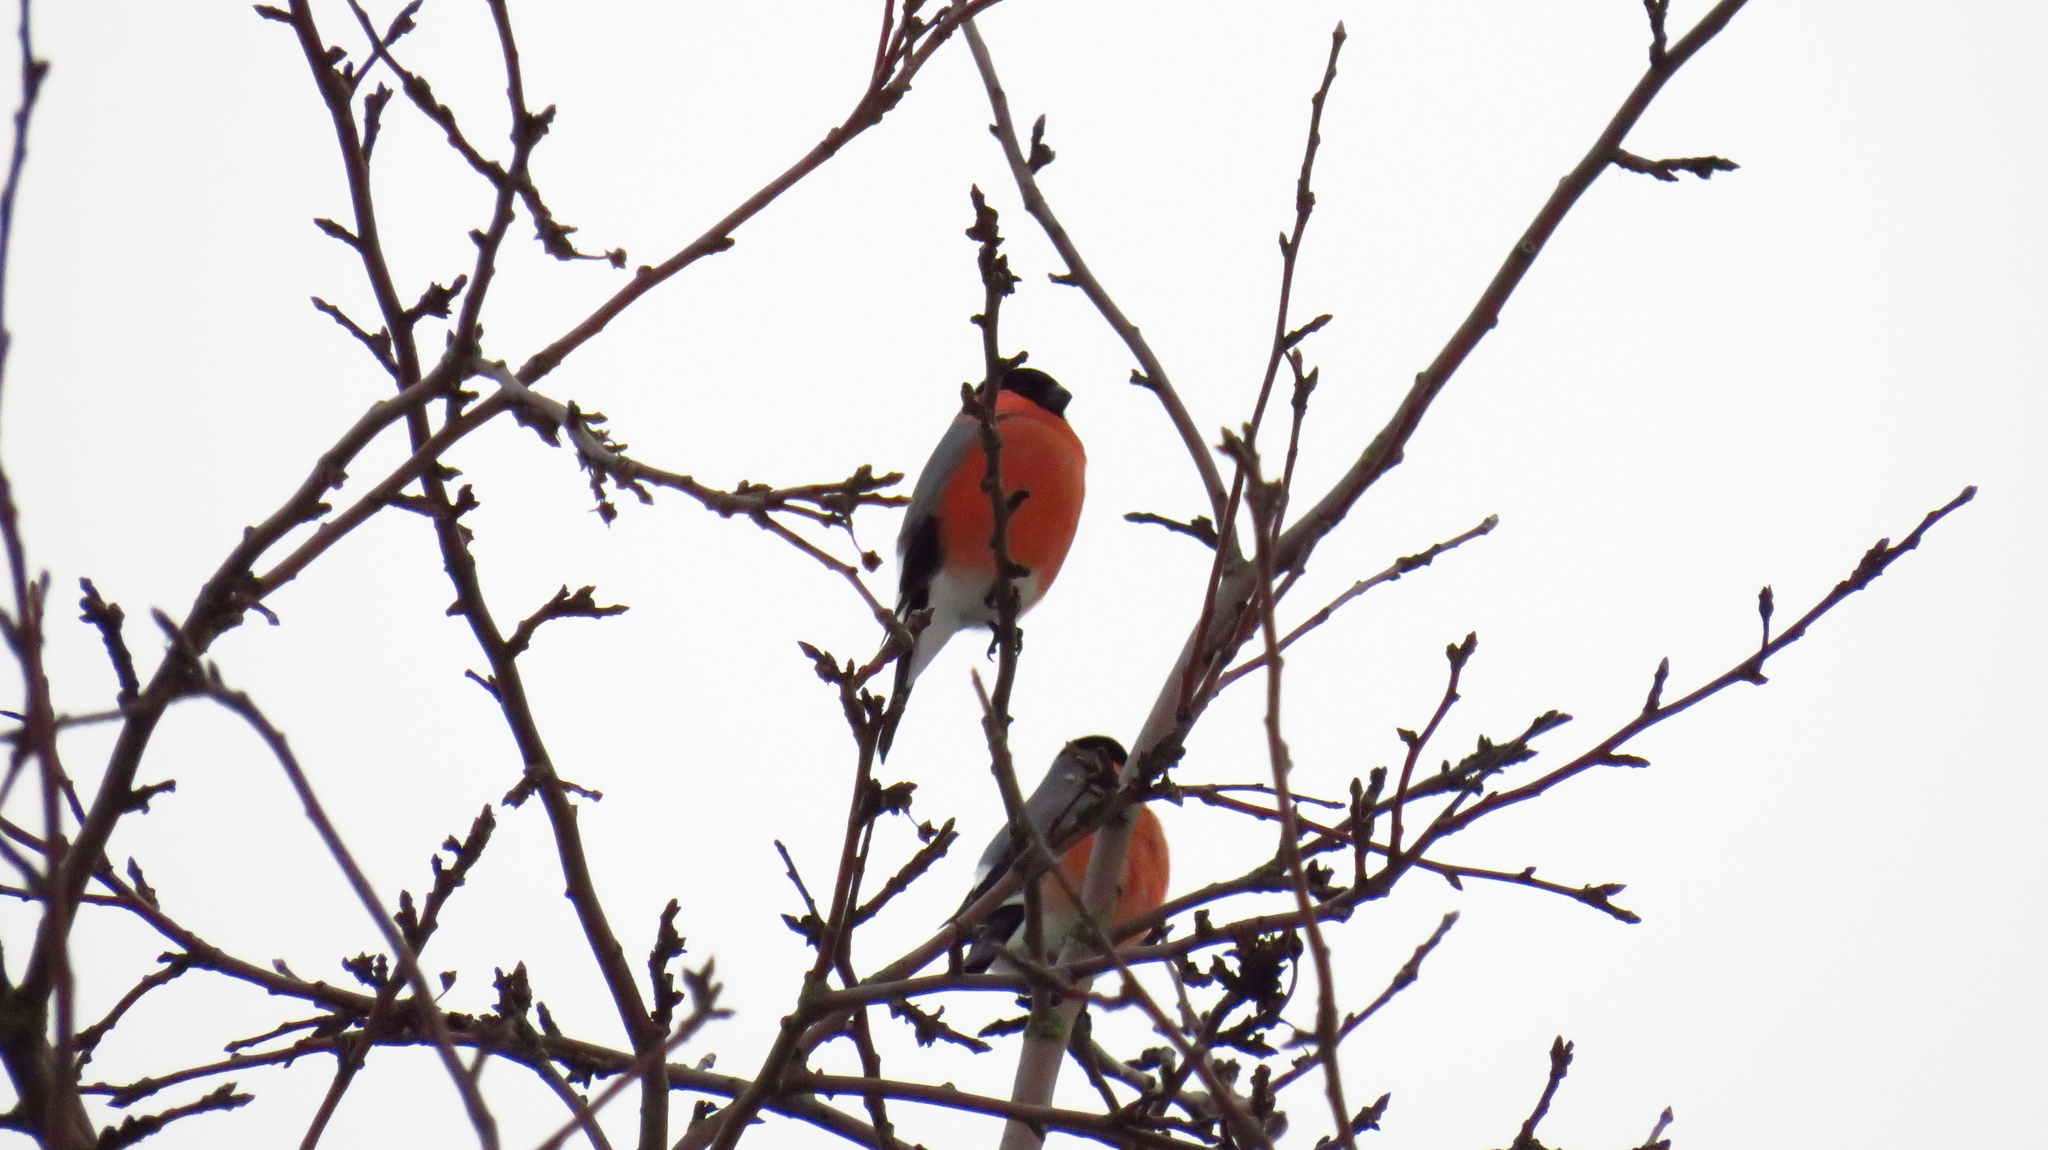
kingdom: Animalia
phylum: Chordata
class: Aves
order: Passeriformes
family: Fringillidae
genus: Pyrrhula
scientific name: Pyrrhula pyrrhula
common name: Eurasian bullfinch
